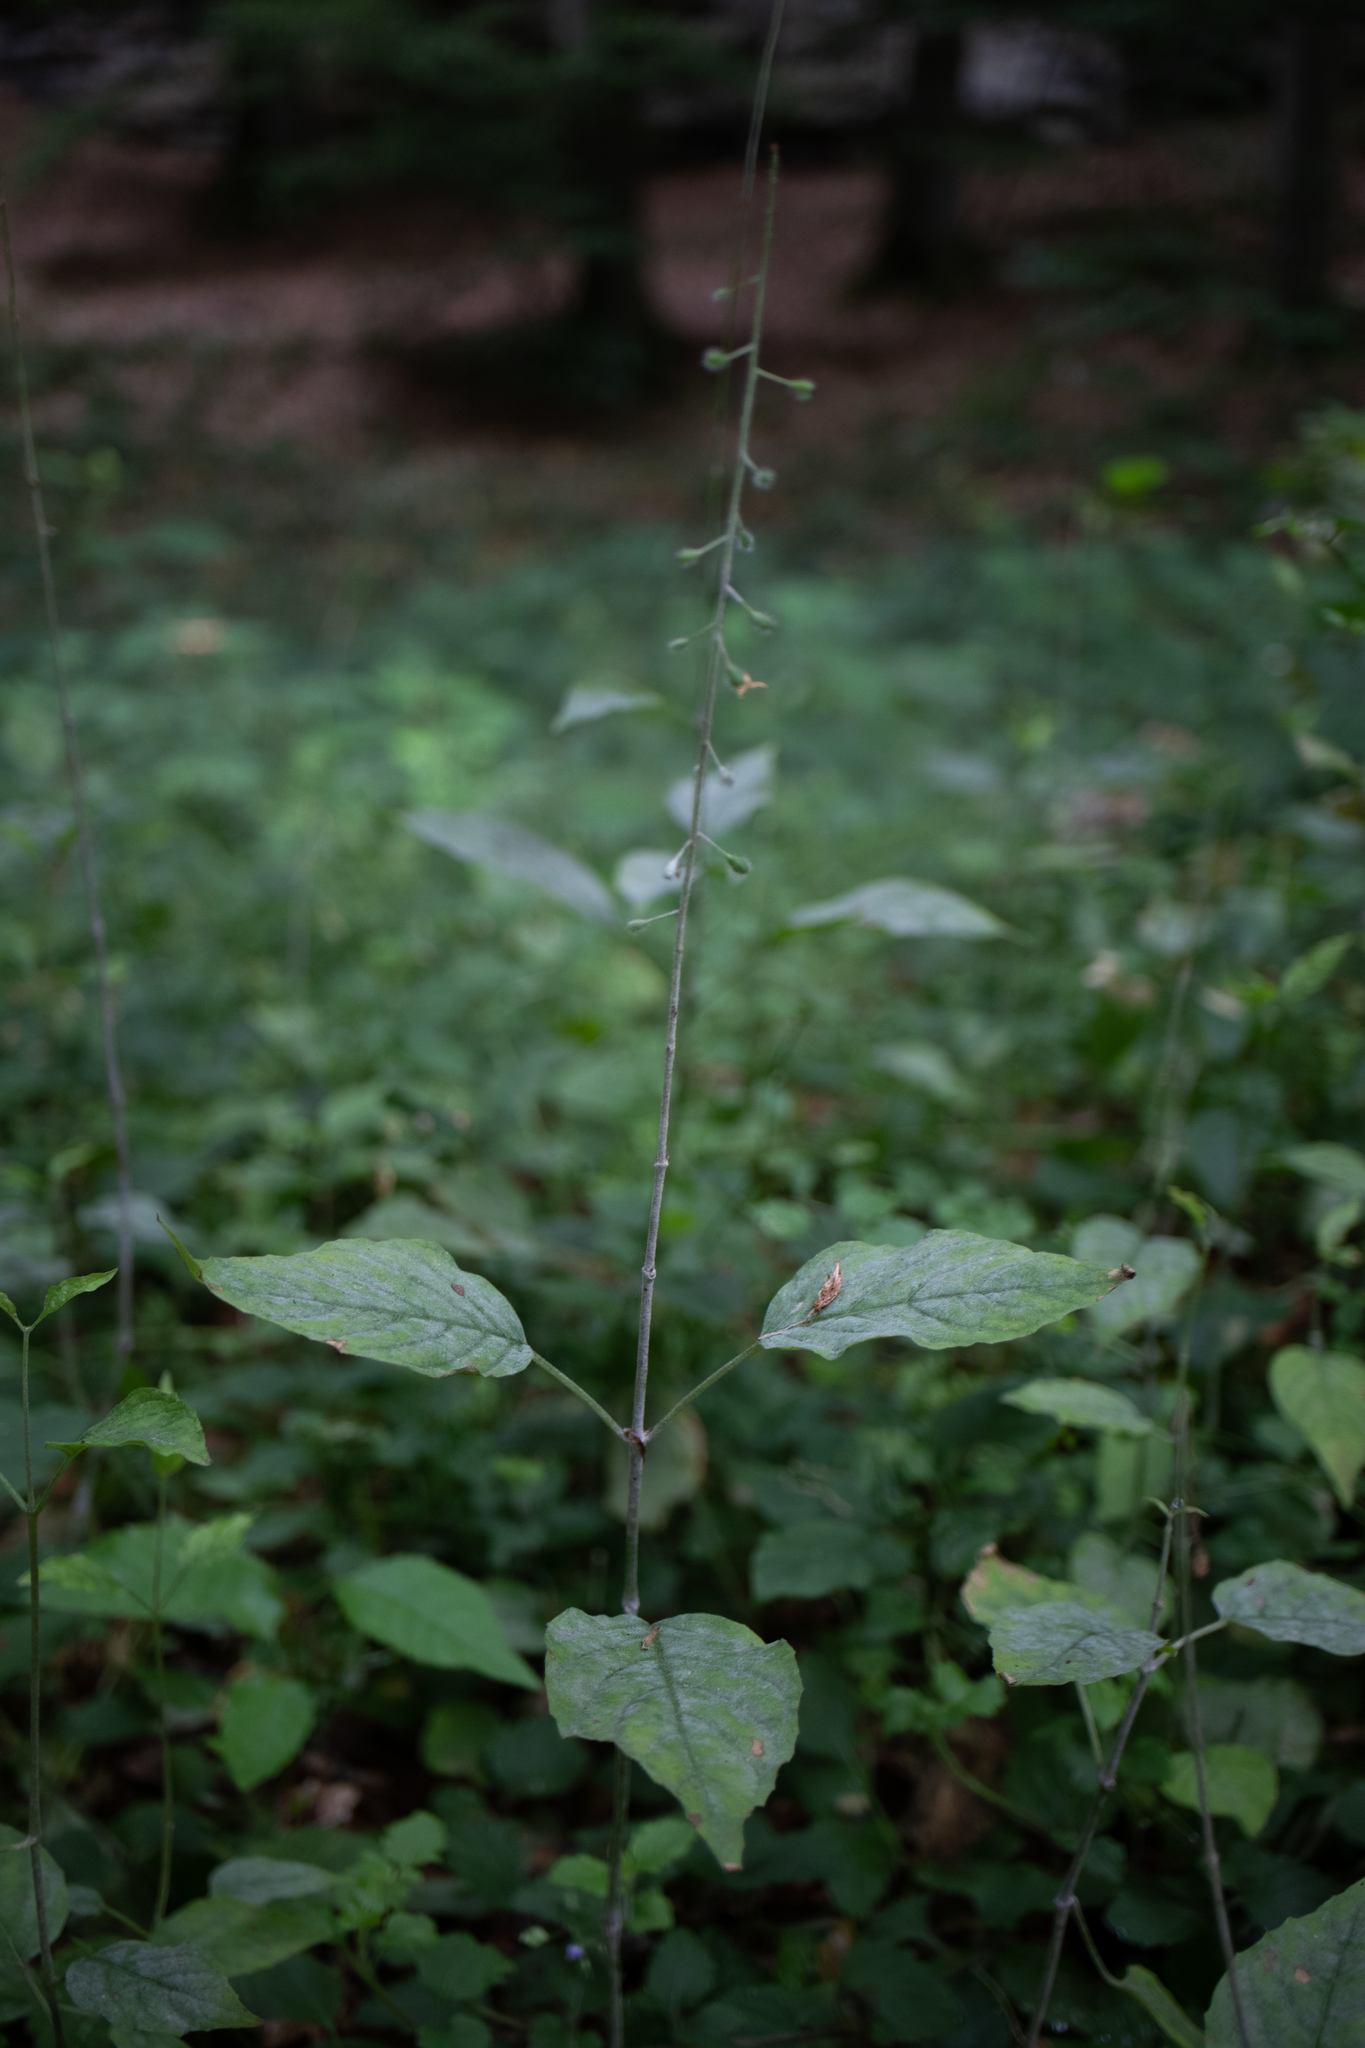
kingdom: Plantae
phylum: Tracheophyta
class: Magnoliopsida
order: Myrtales
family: Onagraceae
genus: Circaea
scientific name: Circaea lutetiana
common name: Enchanter's-nightshade
